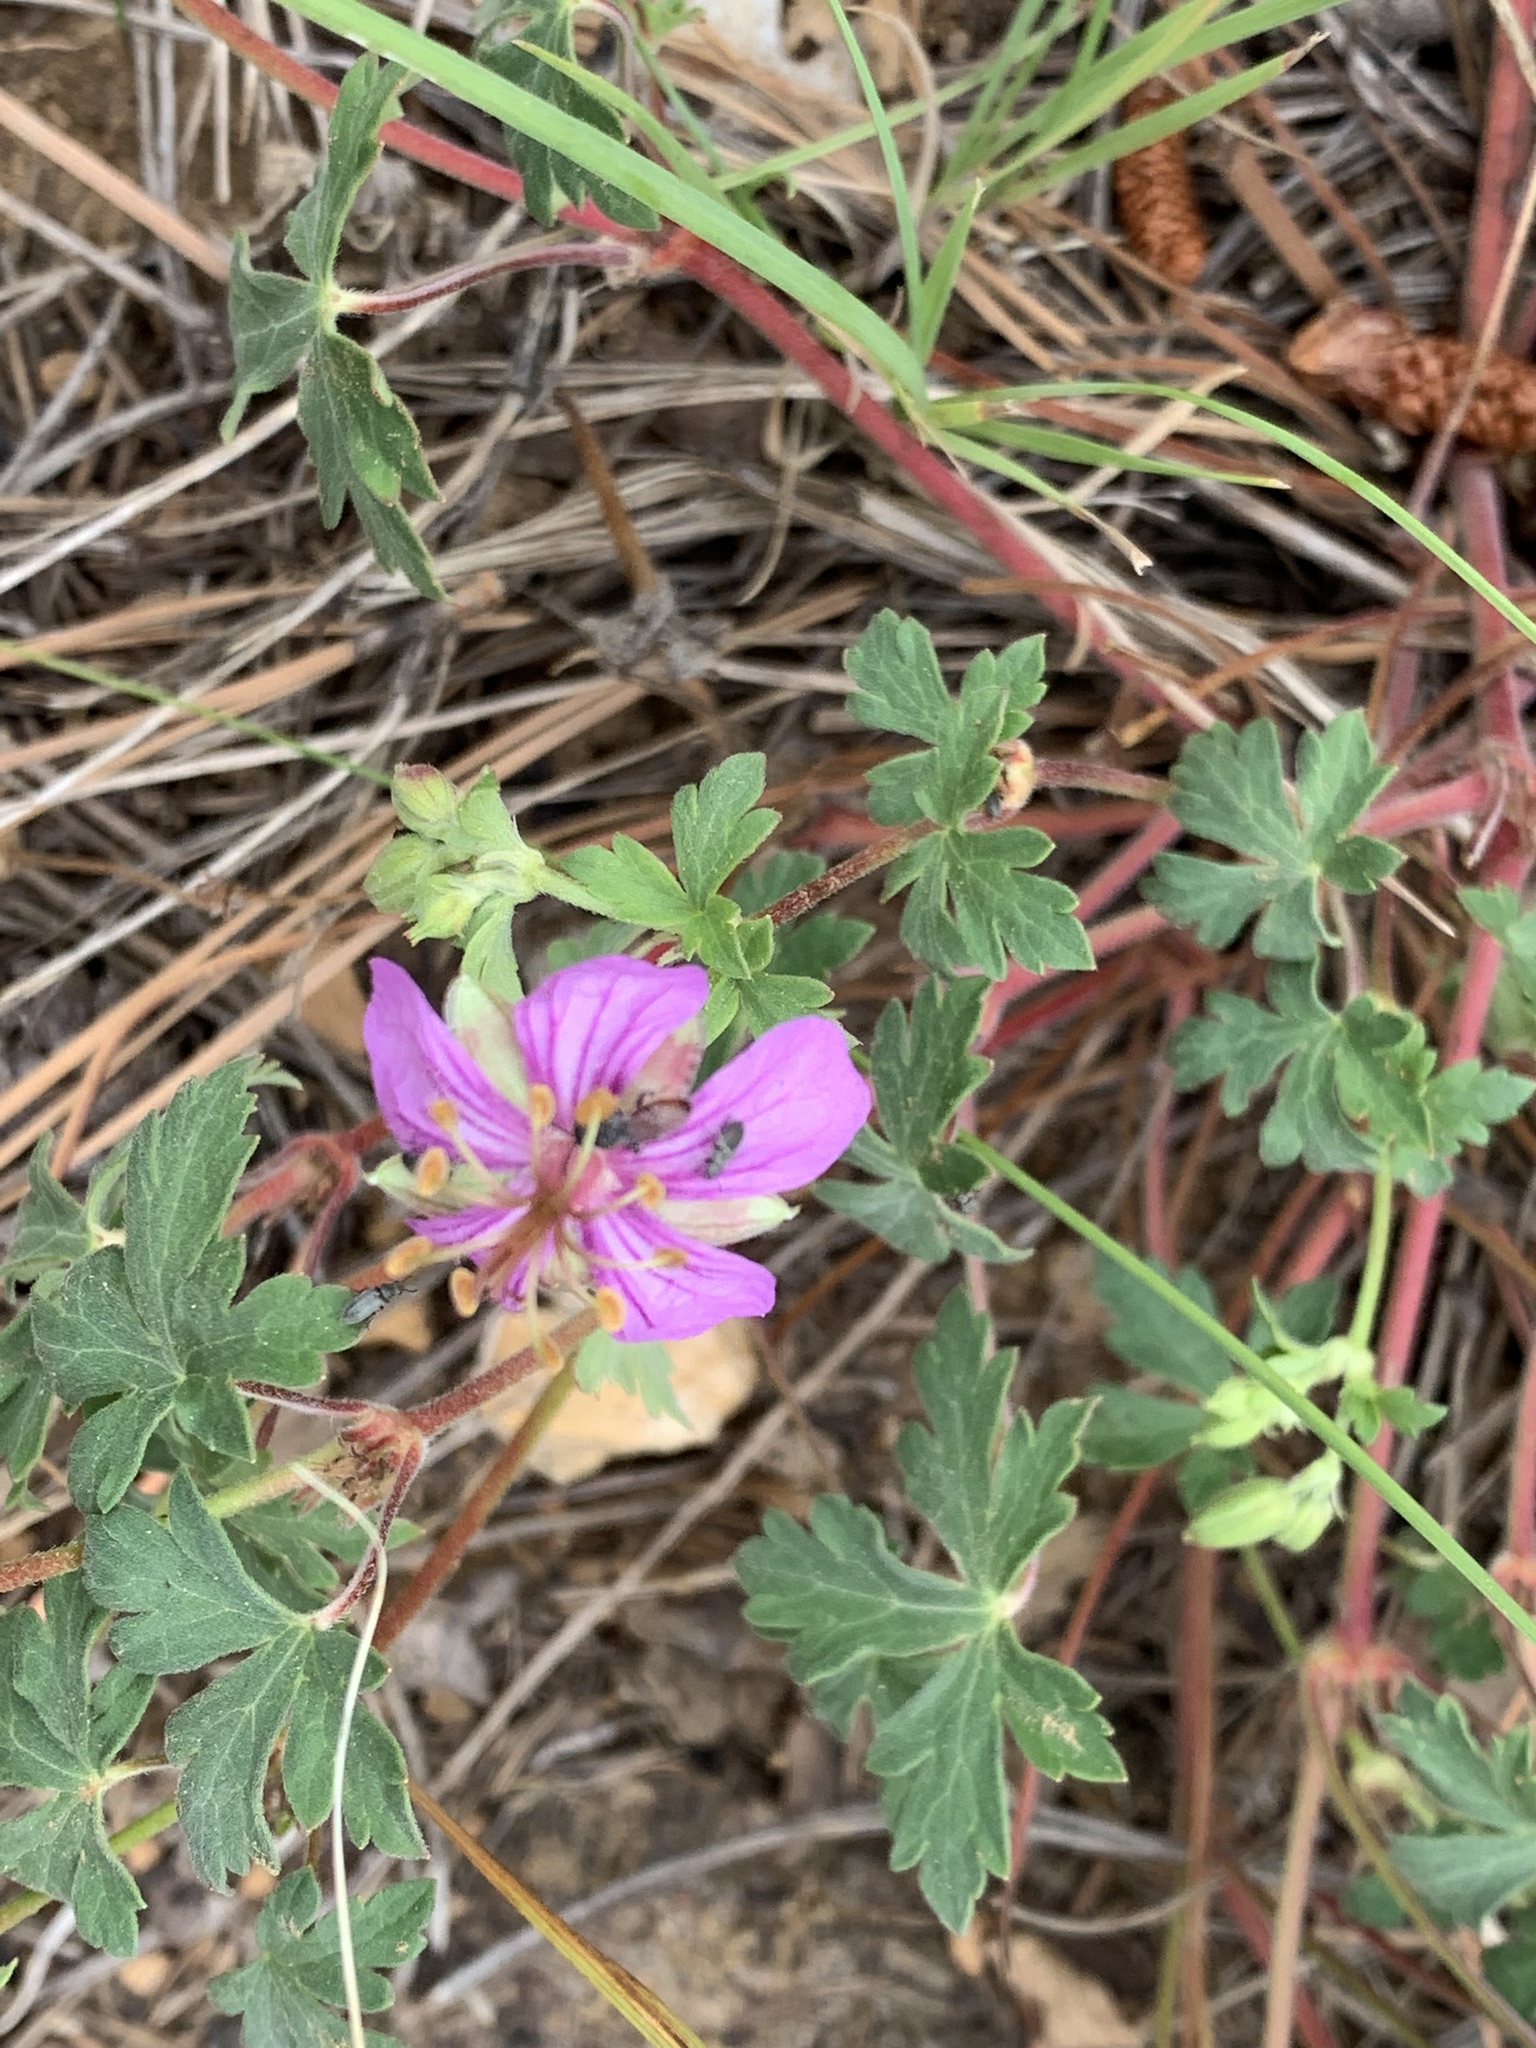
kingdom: Plantae
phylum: Tracheophyta
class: Magnoliopsida
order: Geraniales
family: Geraniaceae
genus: Geranium
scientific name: Geranium caespitosum
